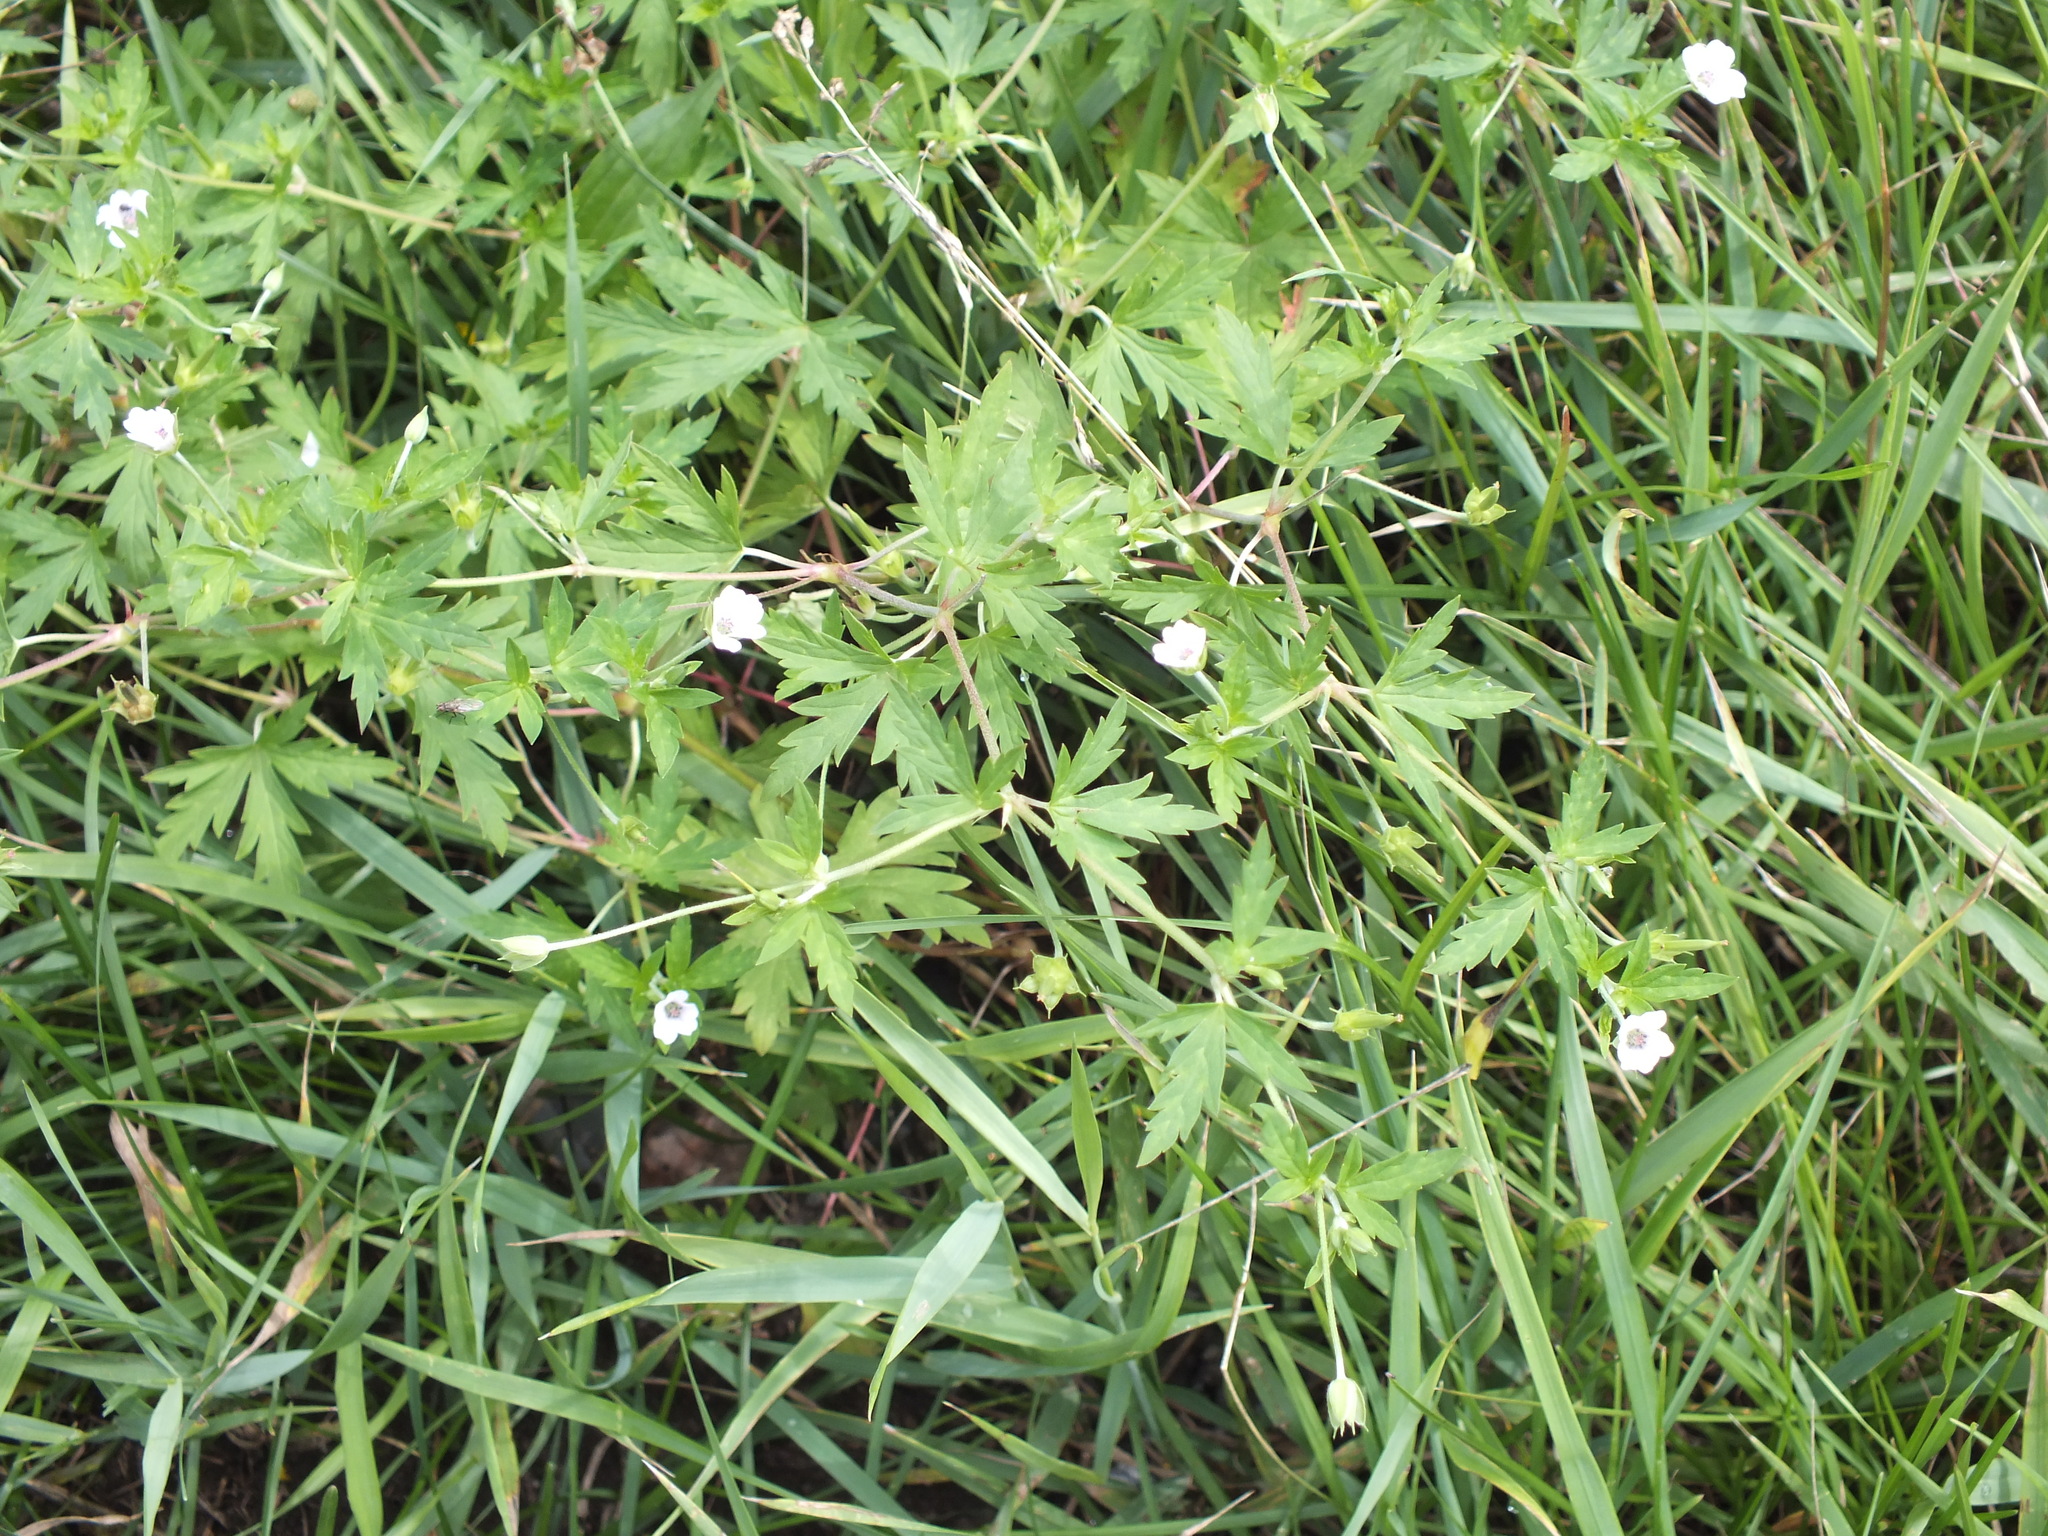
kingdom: Plantae
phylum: Tracheophyta
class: Magnoliopsida
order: Geraniales
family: Geraniaceae
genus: Geranium
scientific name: Geranium sibiricum
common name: Siberian crane's-bill
